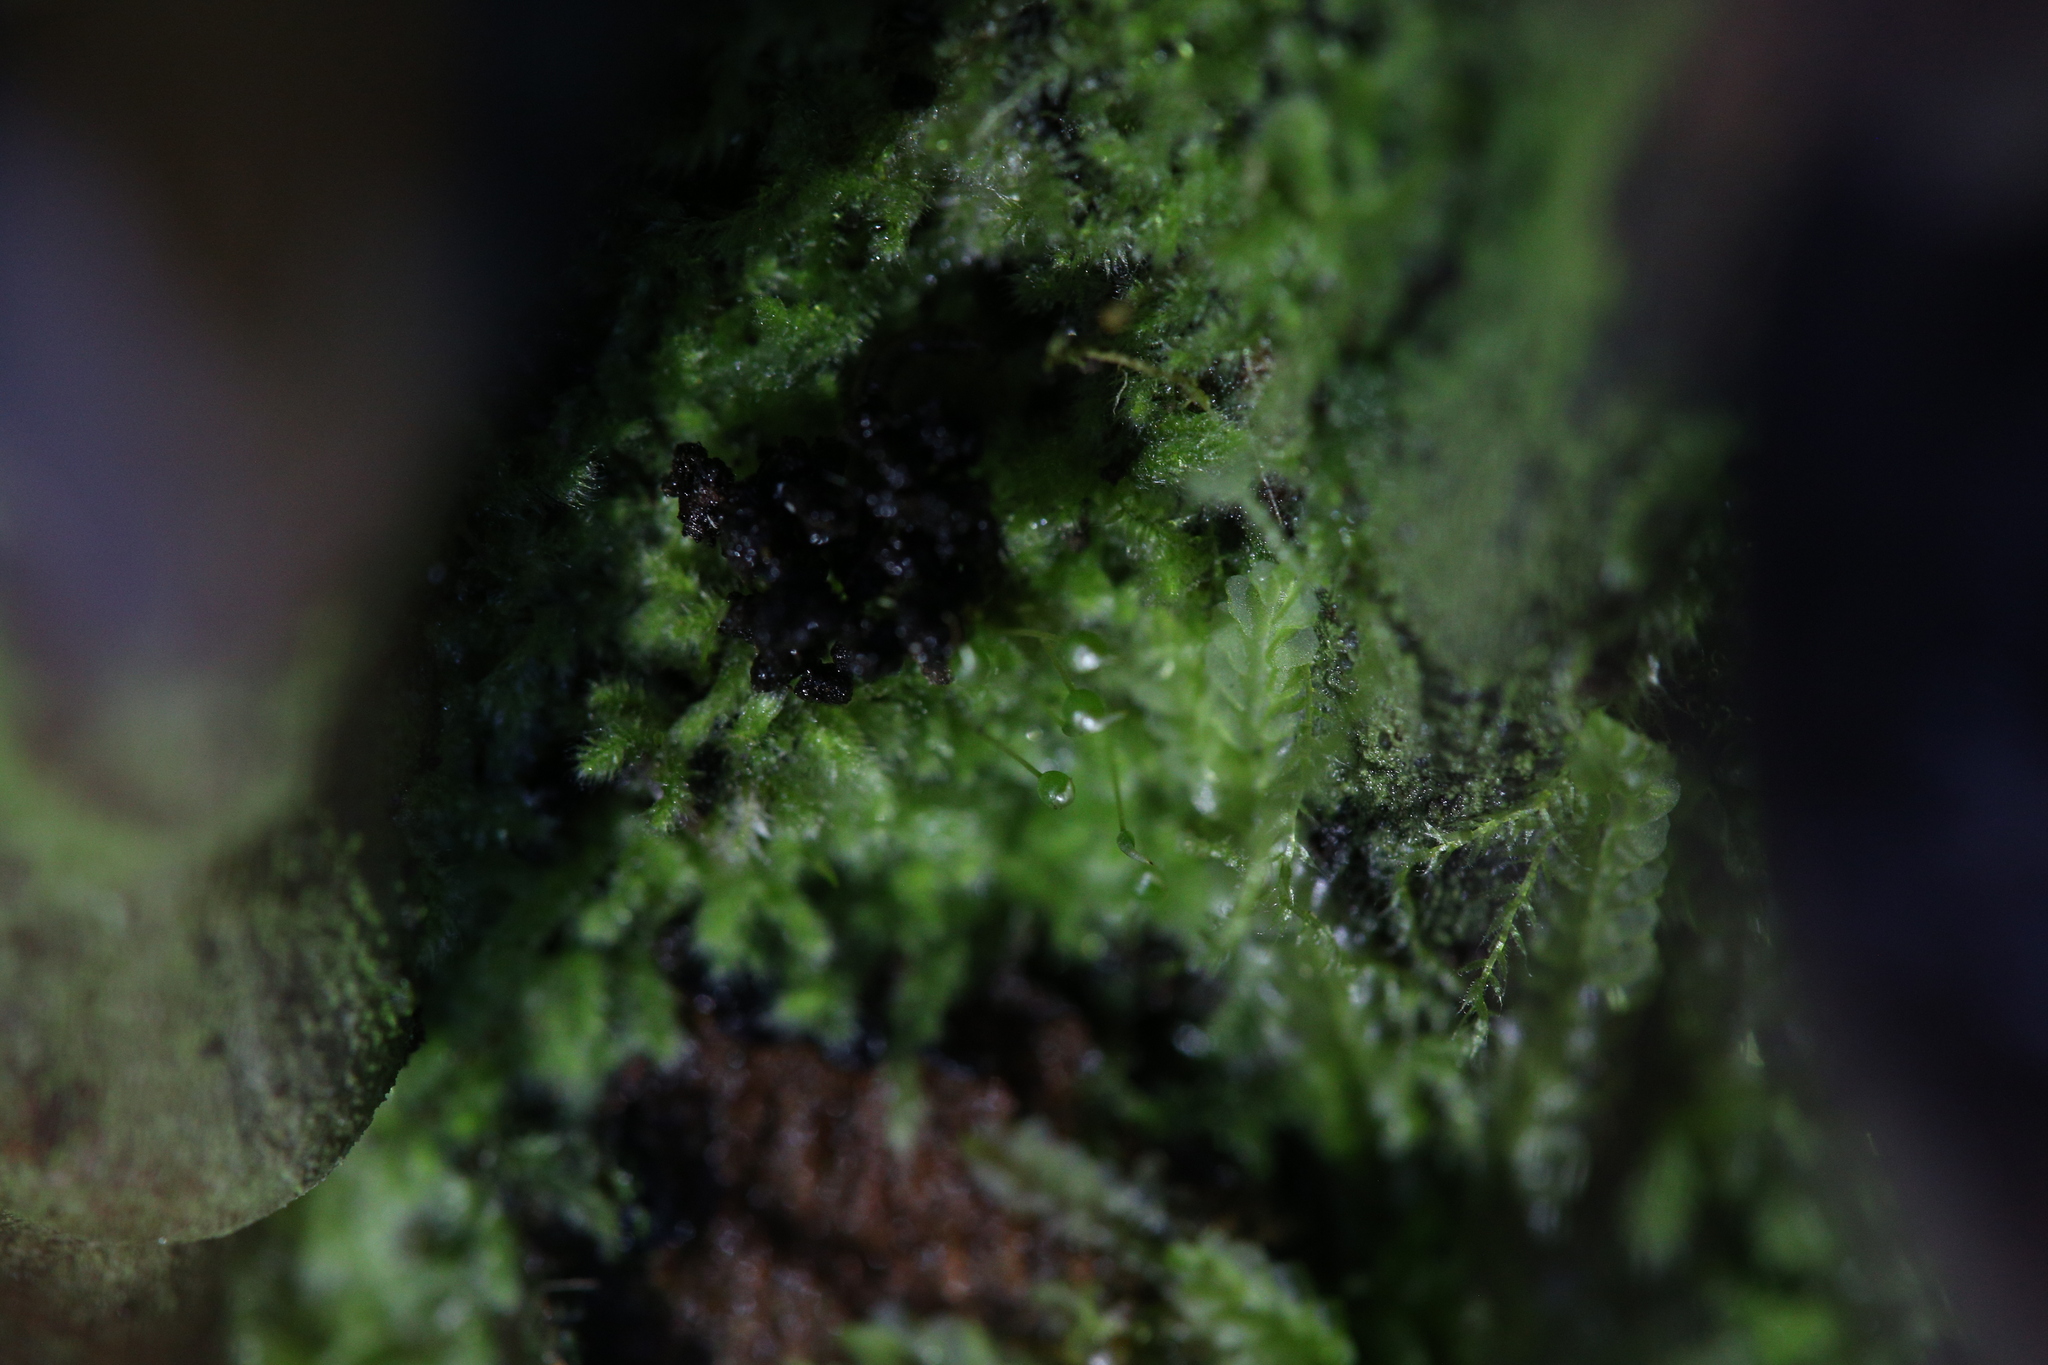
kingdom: Plantae
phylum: Marchantiophyta
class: Jungermanniopsida
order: Jungermanniales
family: Lophocoleaceae
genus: Lophocolea
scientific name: Lophocolea semiteres
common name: Southern crestwort
